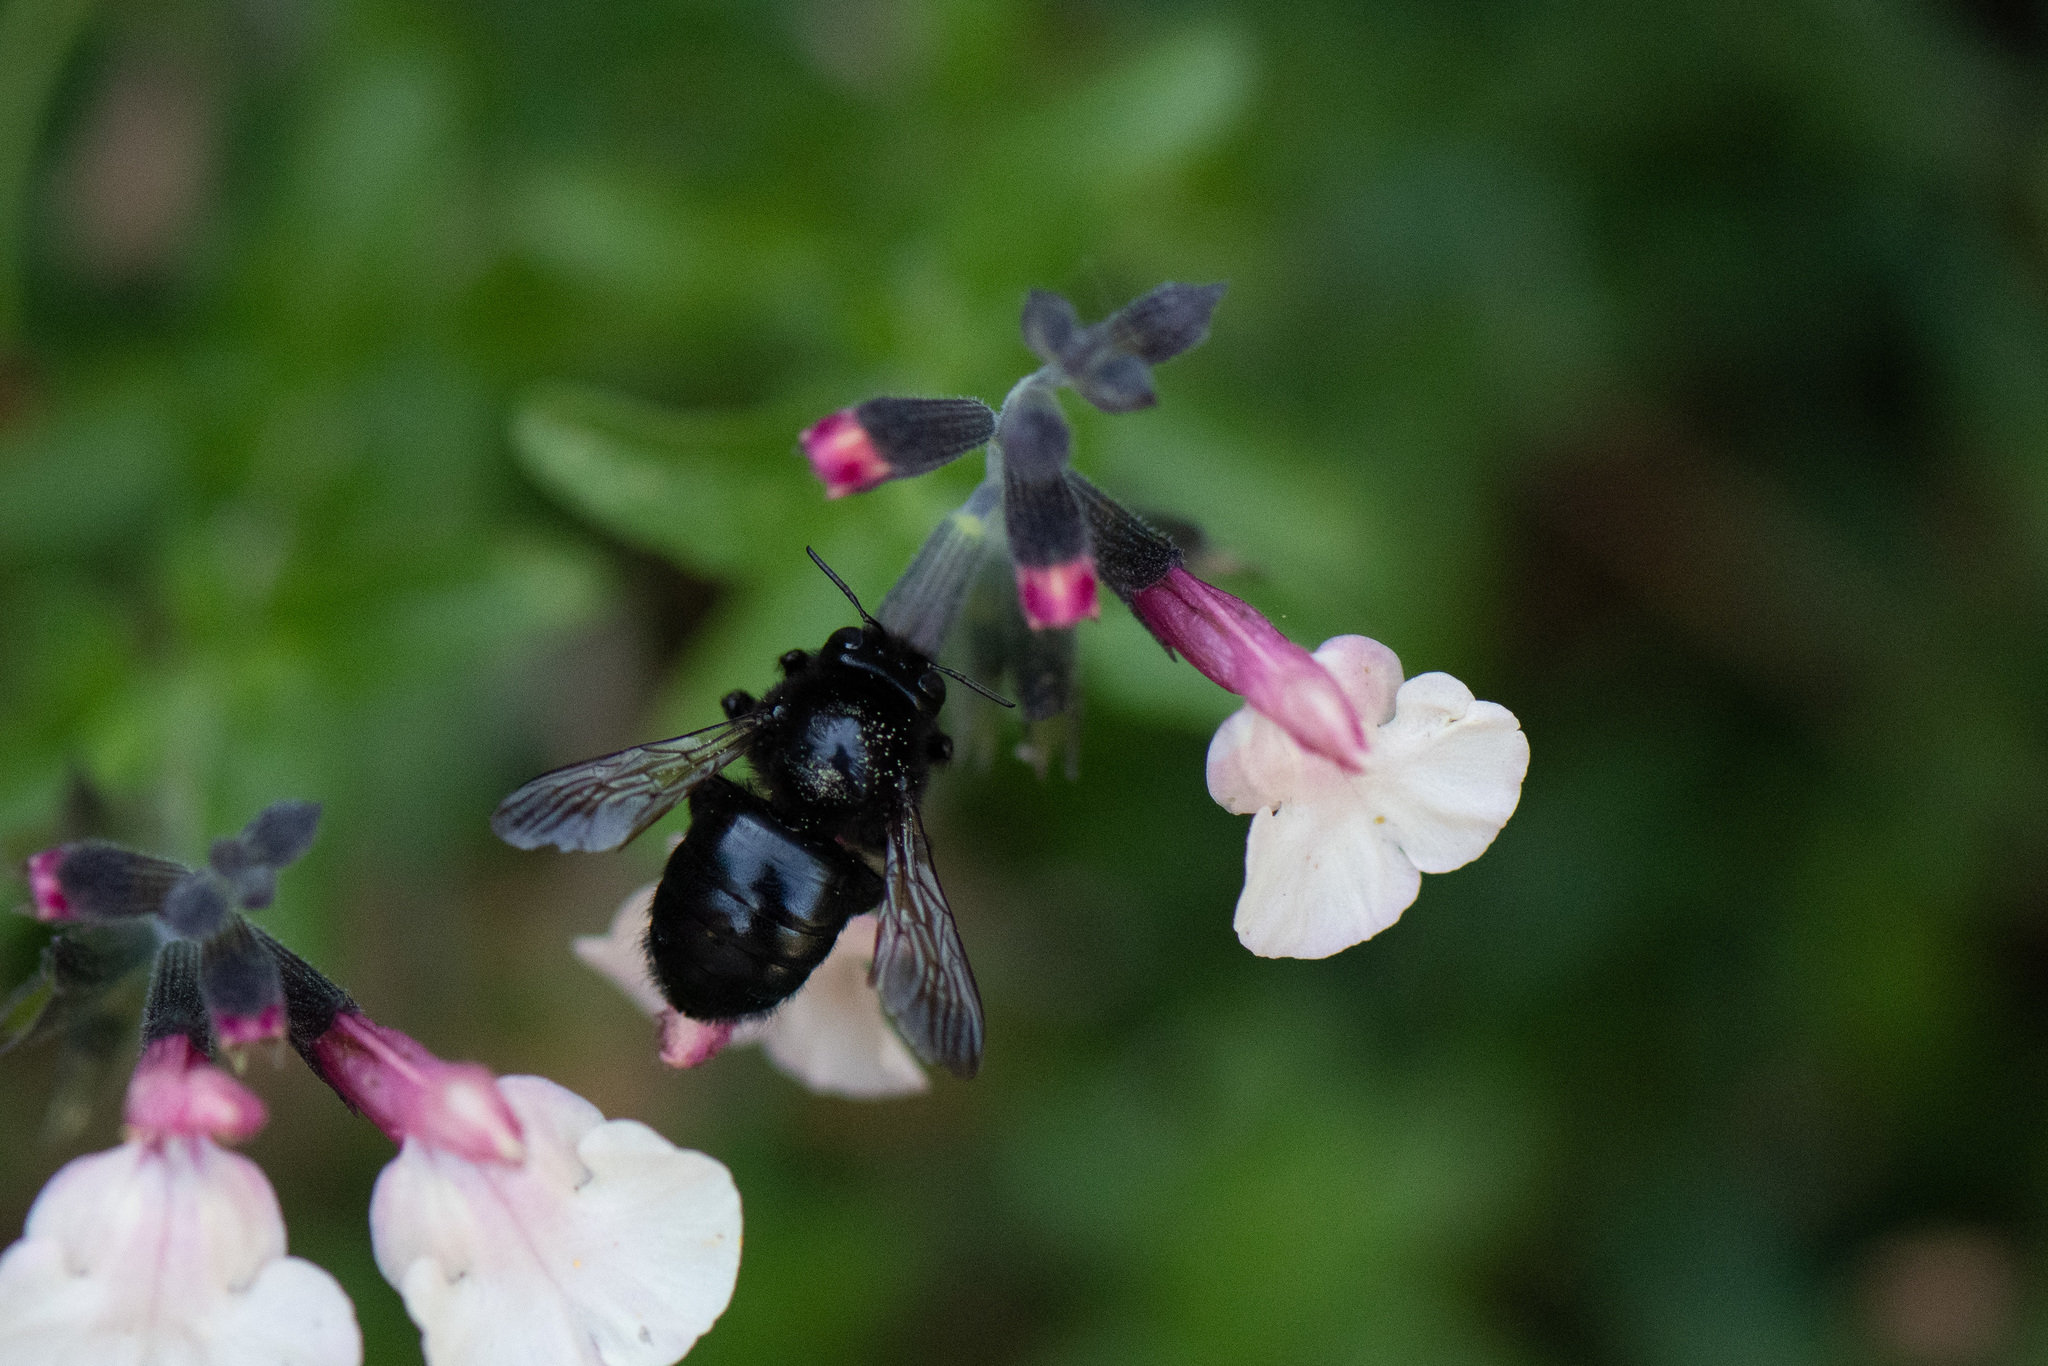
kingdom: Animalia
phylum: Arthropoda
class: Insecta
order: Hymenoptera
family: Apidae
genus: Xylocopa
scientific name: Xylocopa tabaniformis
